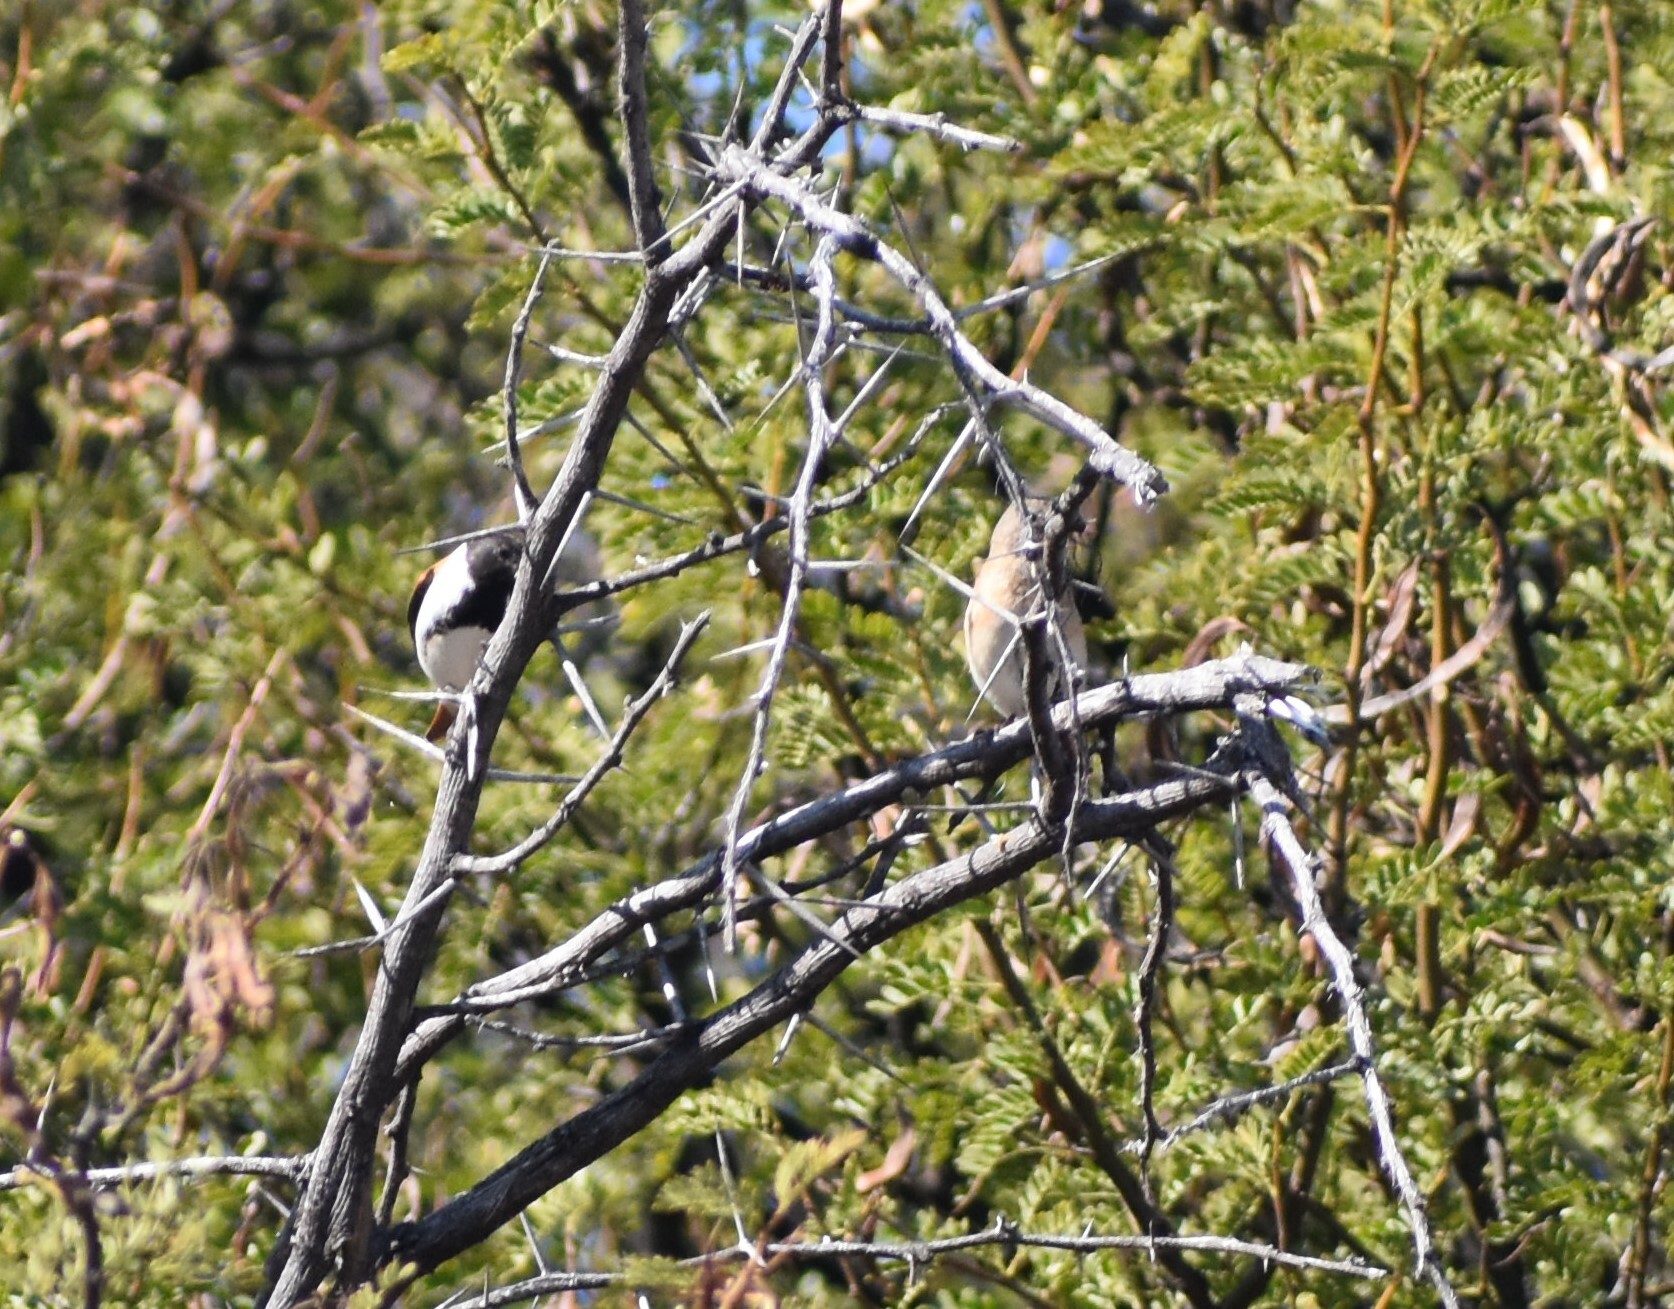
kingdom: Animalia
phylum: Chordata
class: Aves
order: Passeriformes
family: Fringillidae
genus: Serinus
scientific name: Serinus alario
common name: Black-headed canary
